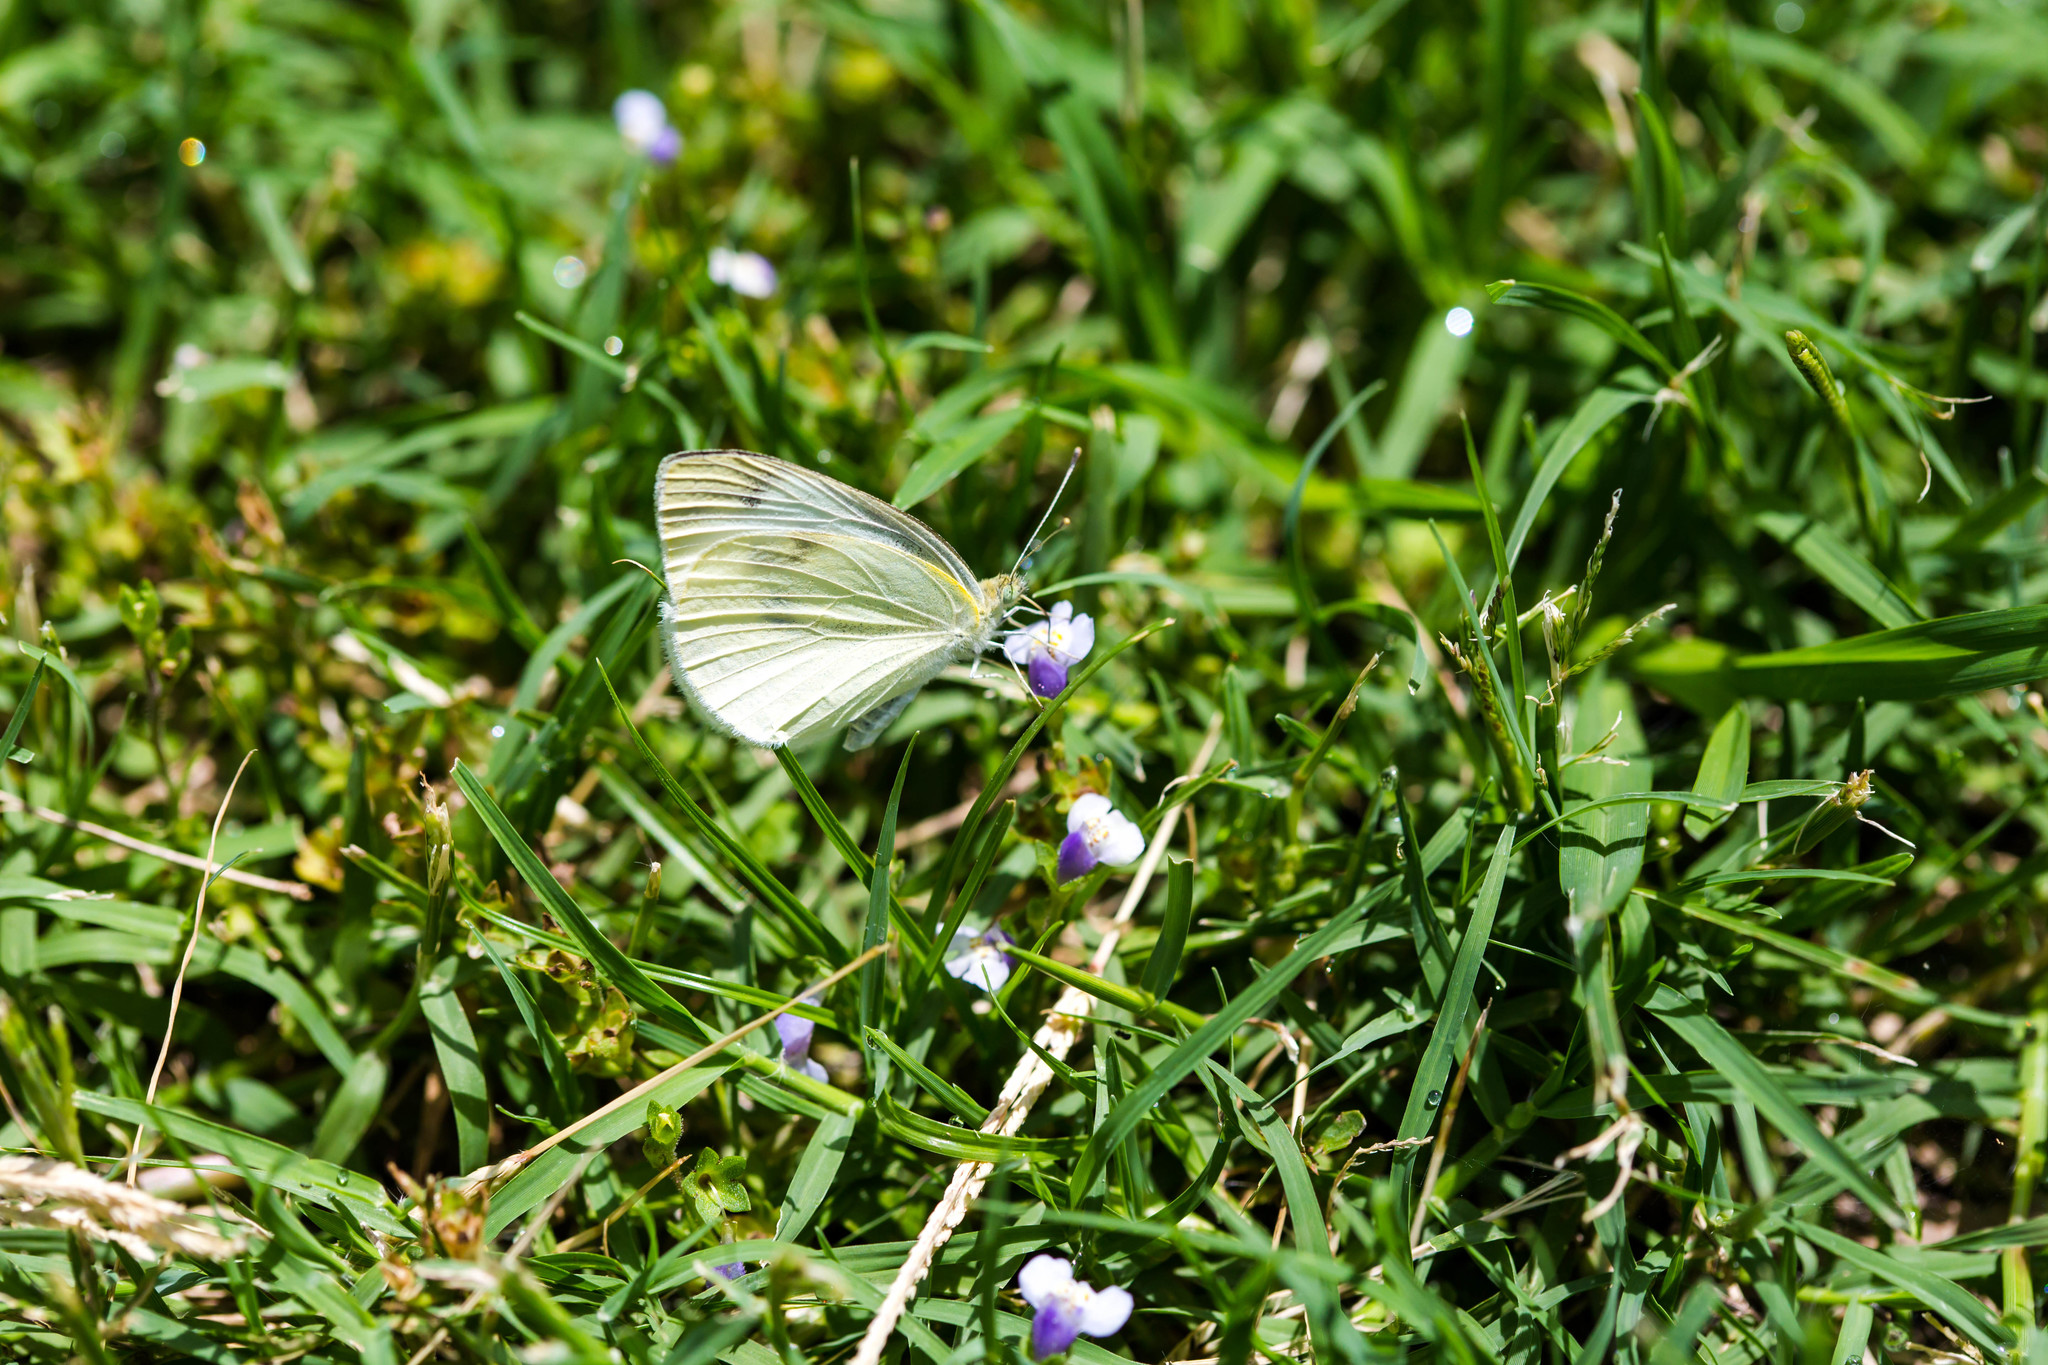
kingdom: Animalia
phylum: Arthropoda
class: Insecta
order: Lepidoptera
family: Pieridae
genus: Pieris
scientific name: Pieris rapae
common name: Small white
